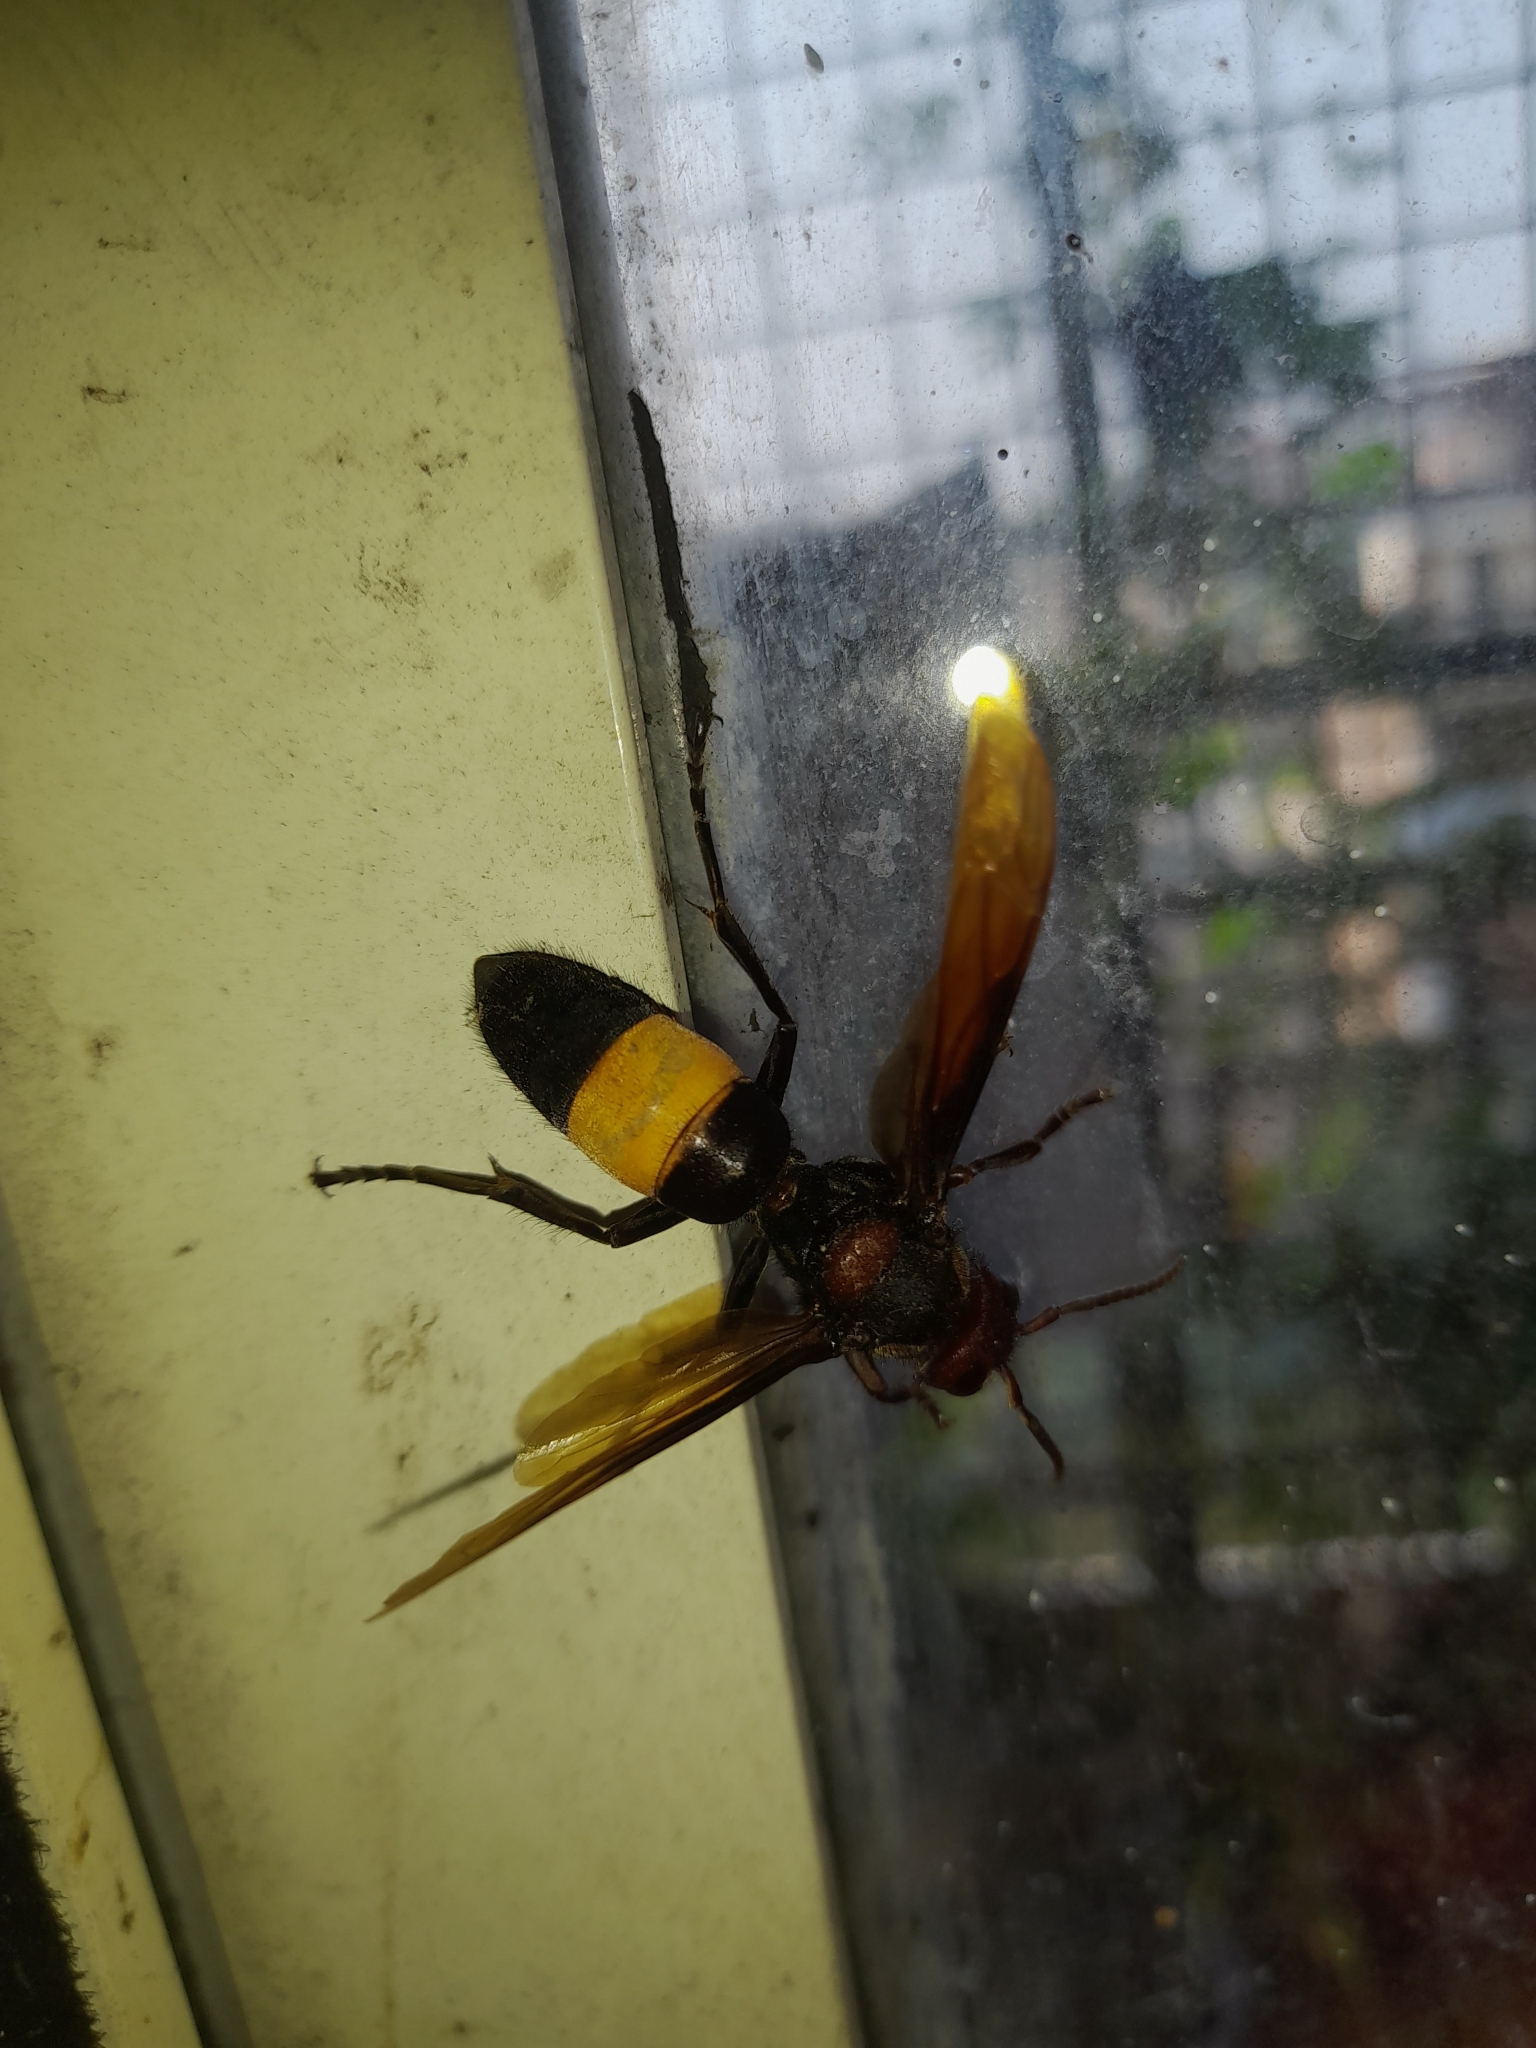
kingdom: Animalia
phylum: Arthropoda
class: Insecta
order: Hymenoptera
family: Vespidae
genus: Vespa
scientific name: Vespa tropica
